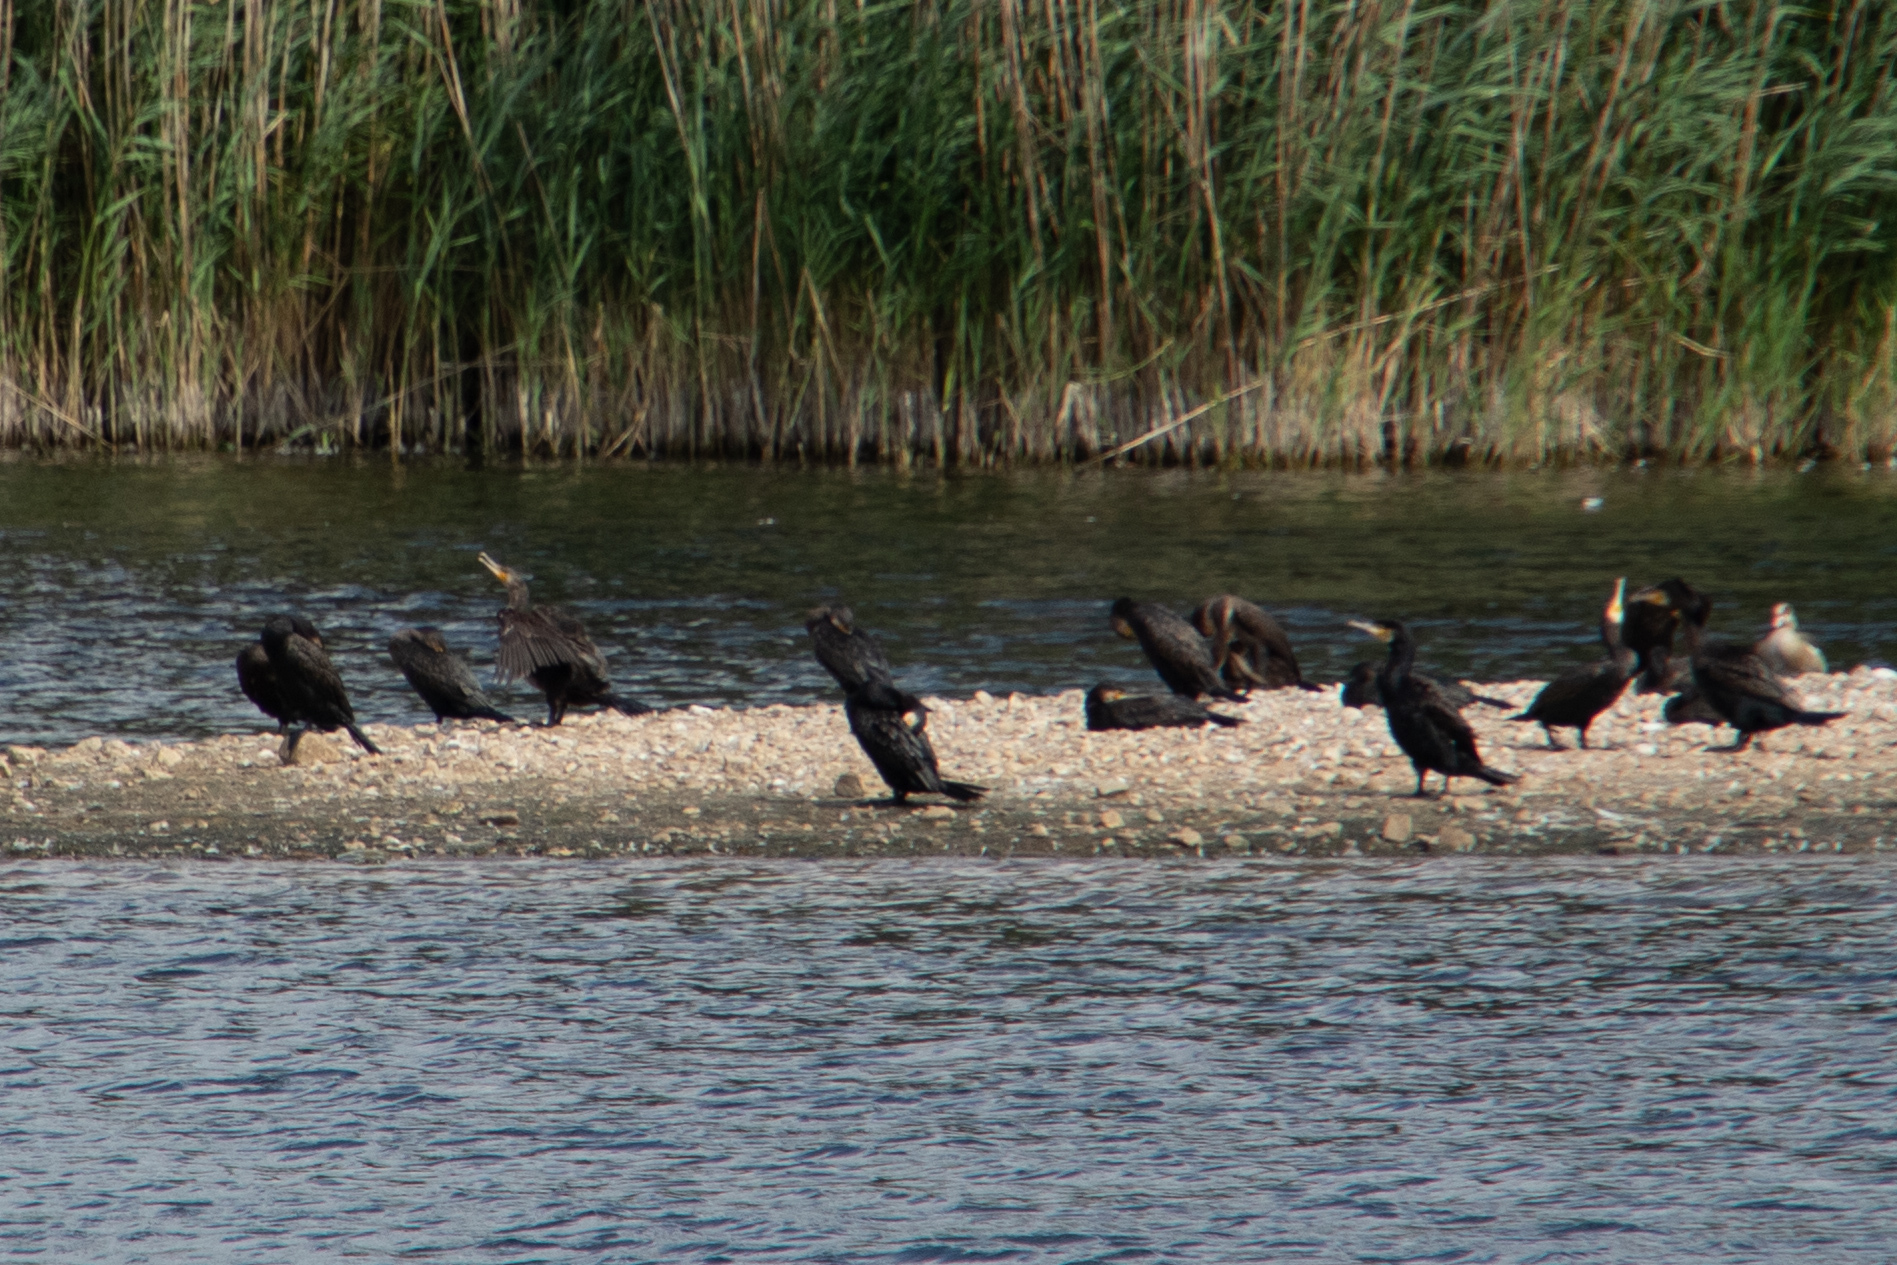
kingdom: Animalia
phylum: Chordata
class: Aves
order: Suliformes
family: Phalacrocoracidae
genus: Phalacrocorax
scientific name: Phalacrocorax carbo
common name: Great cormorant
